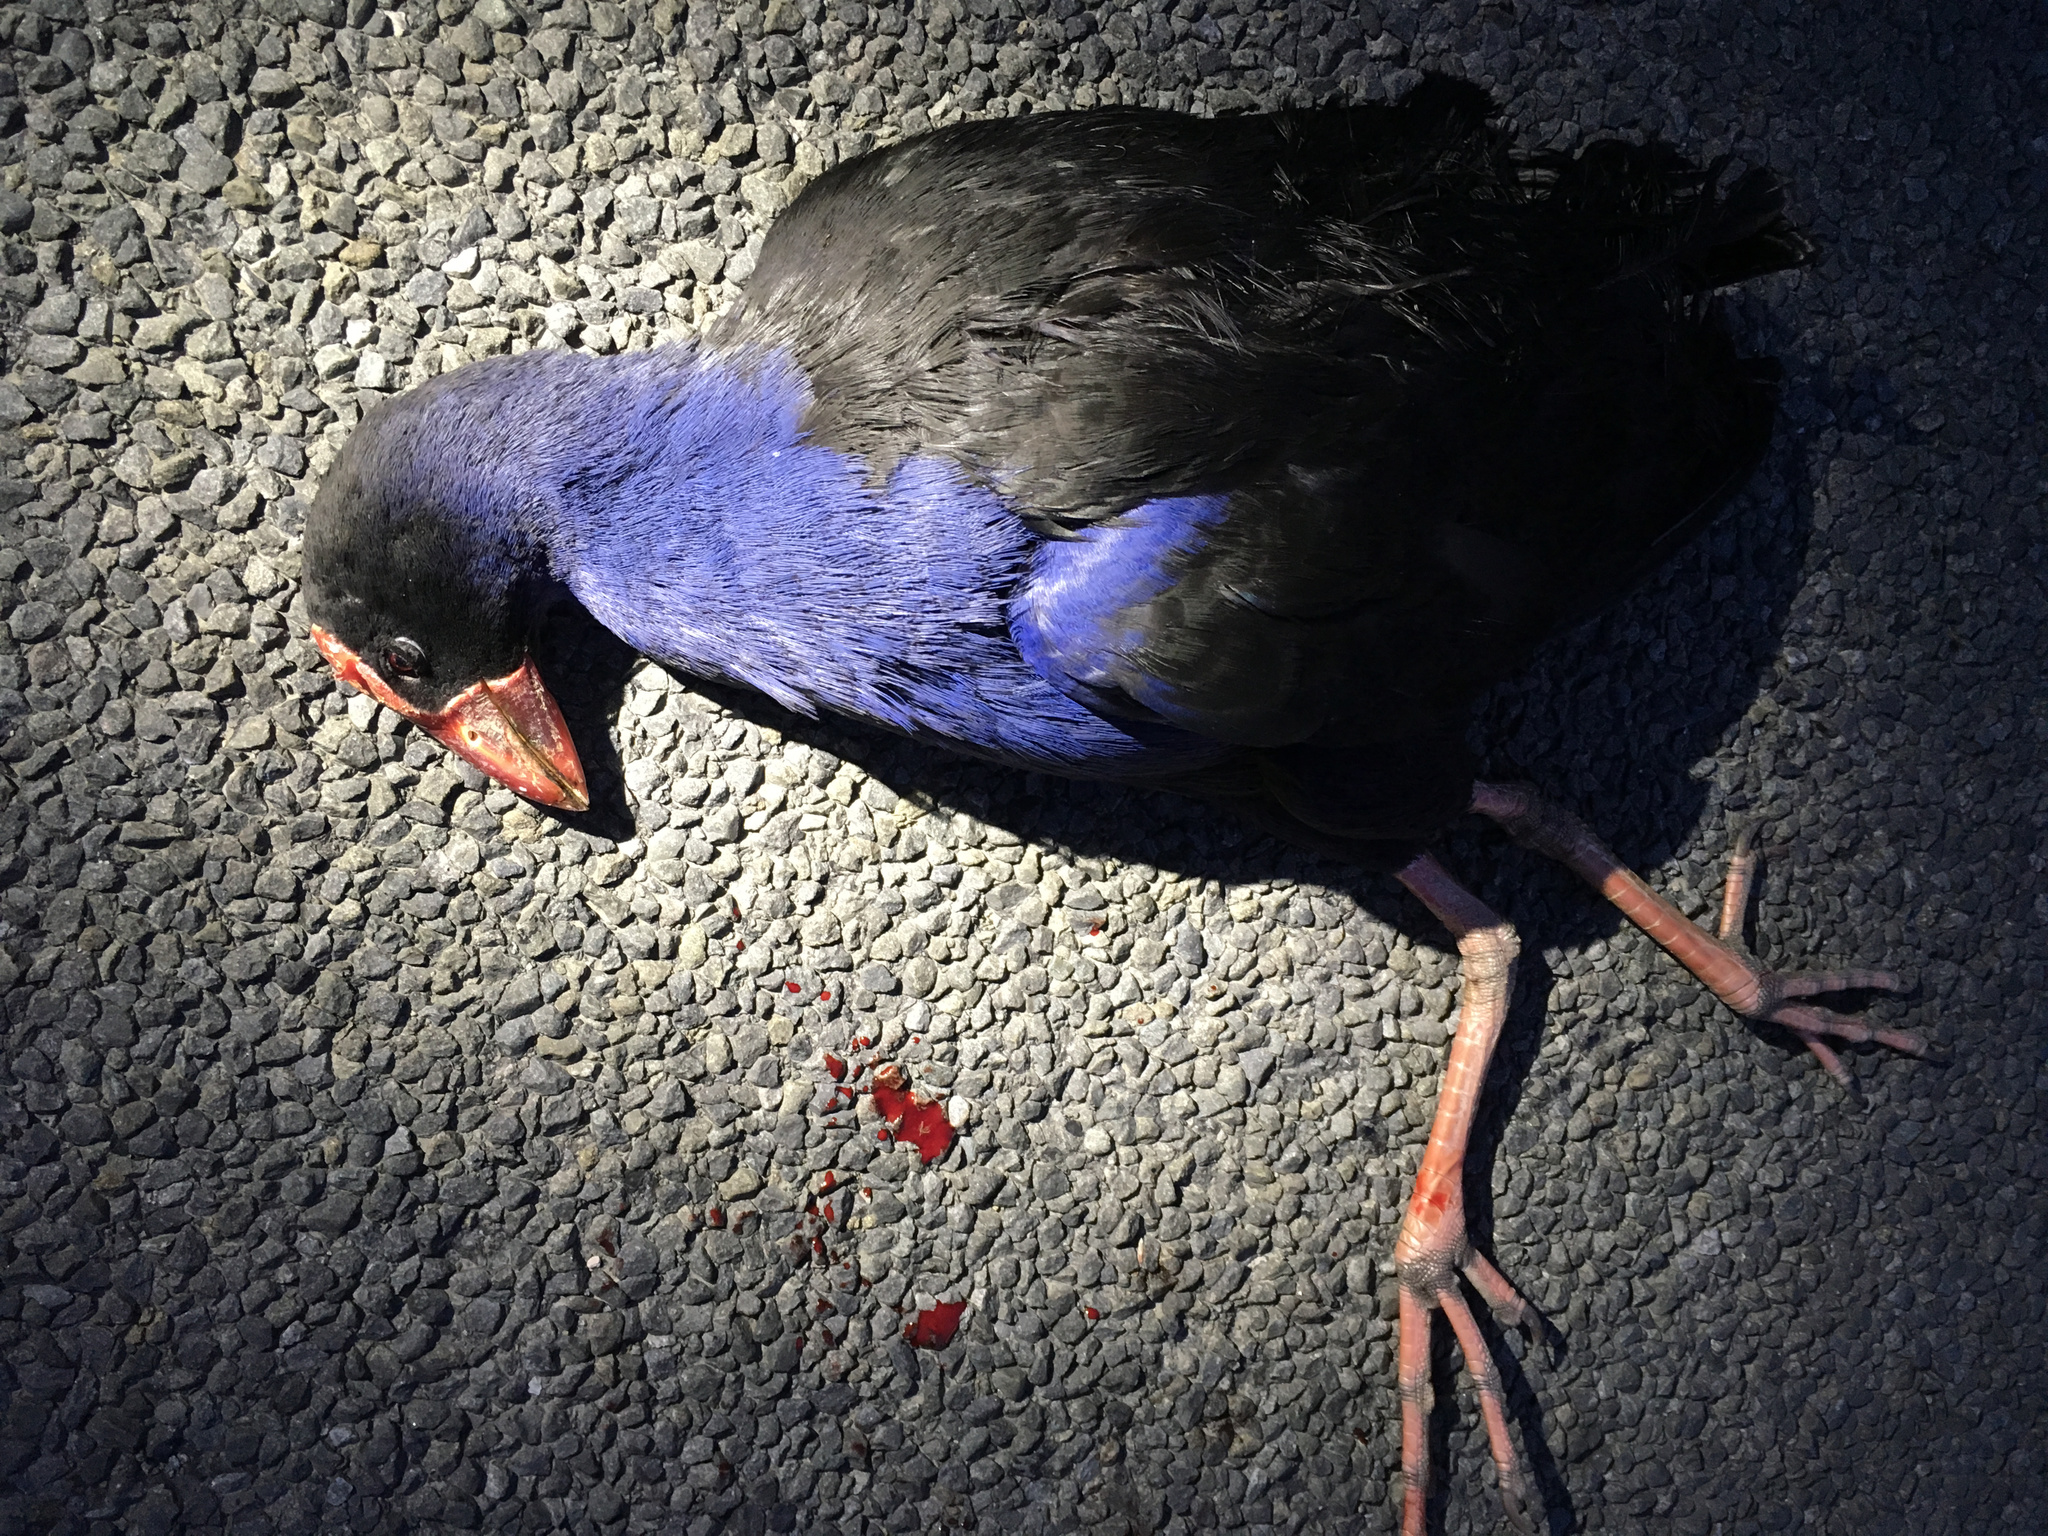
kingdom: Animalia
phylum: Chordata
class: Aves
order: Gruiformes
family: Rallidae
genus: Porphyrio
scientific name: Porphyrio melanotus
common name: Australasian swamphen
